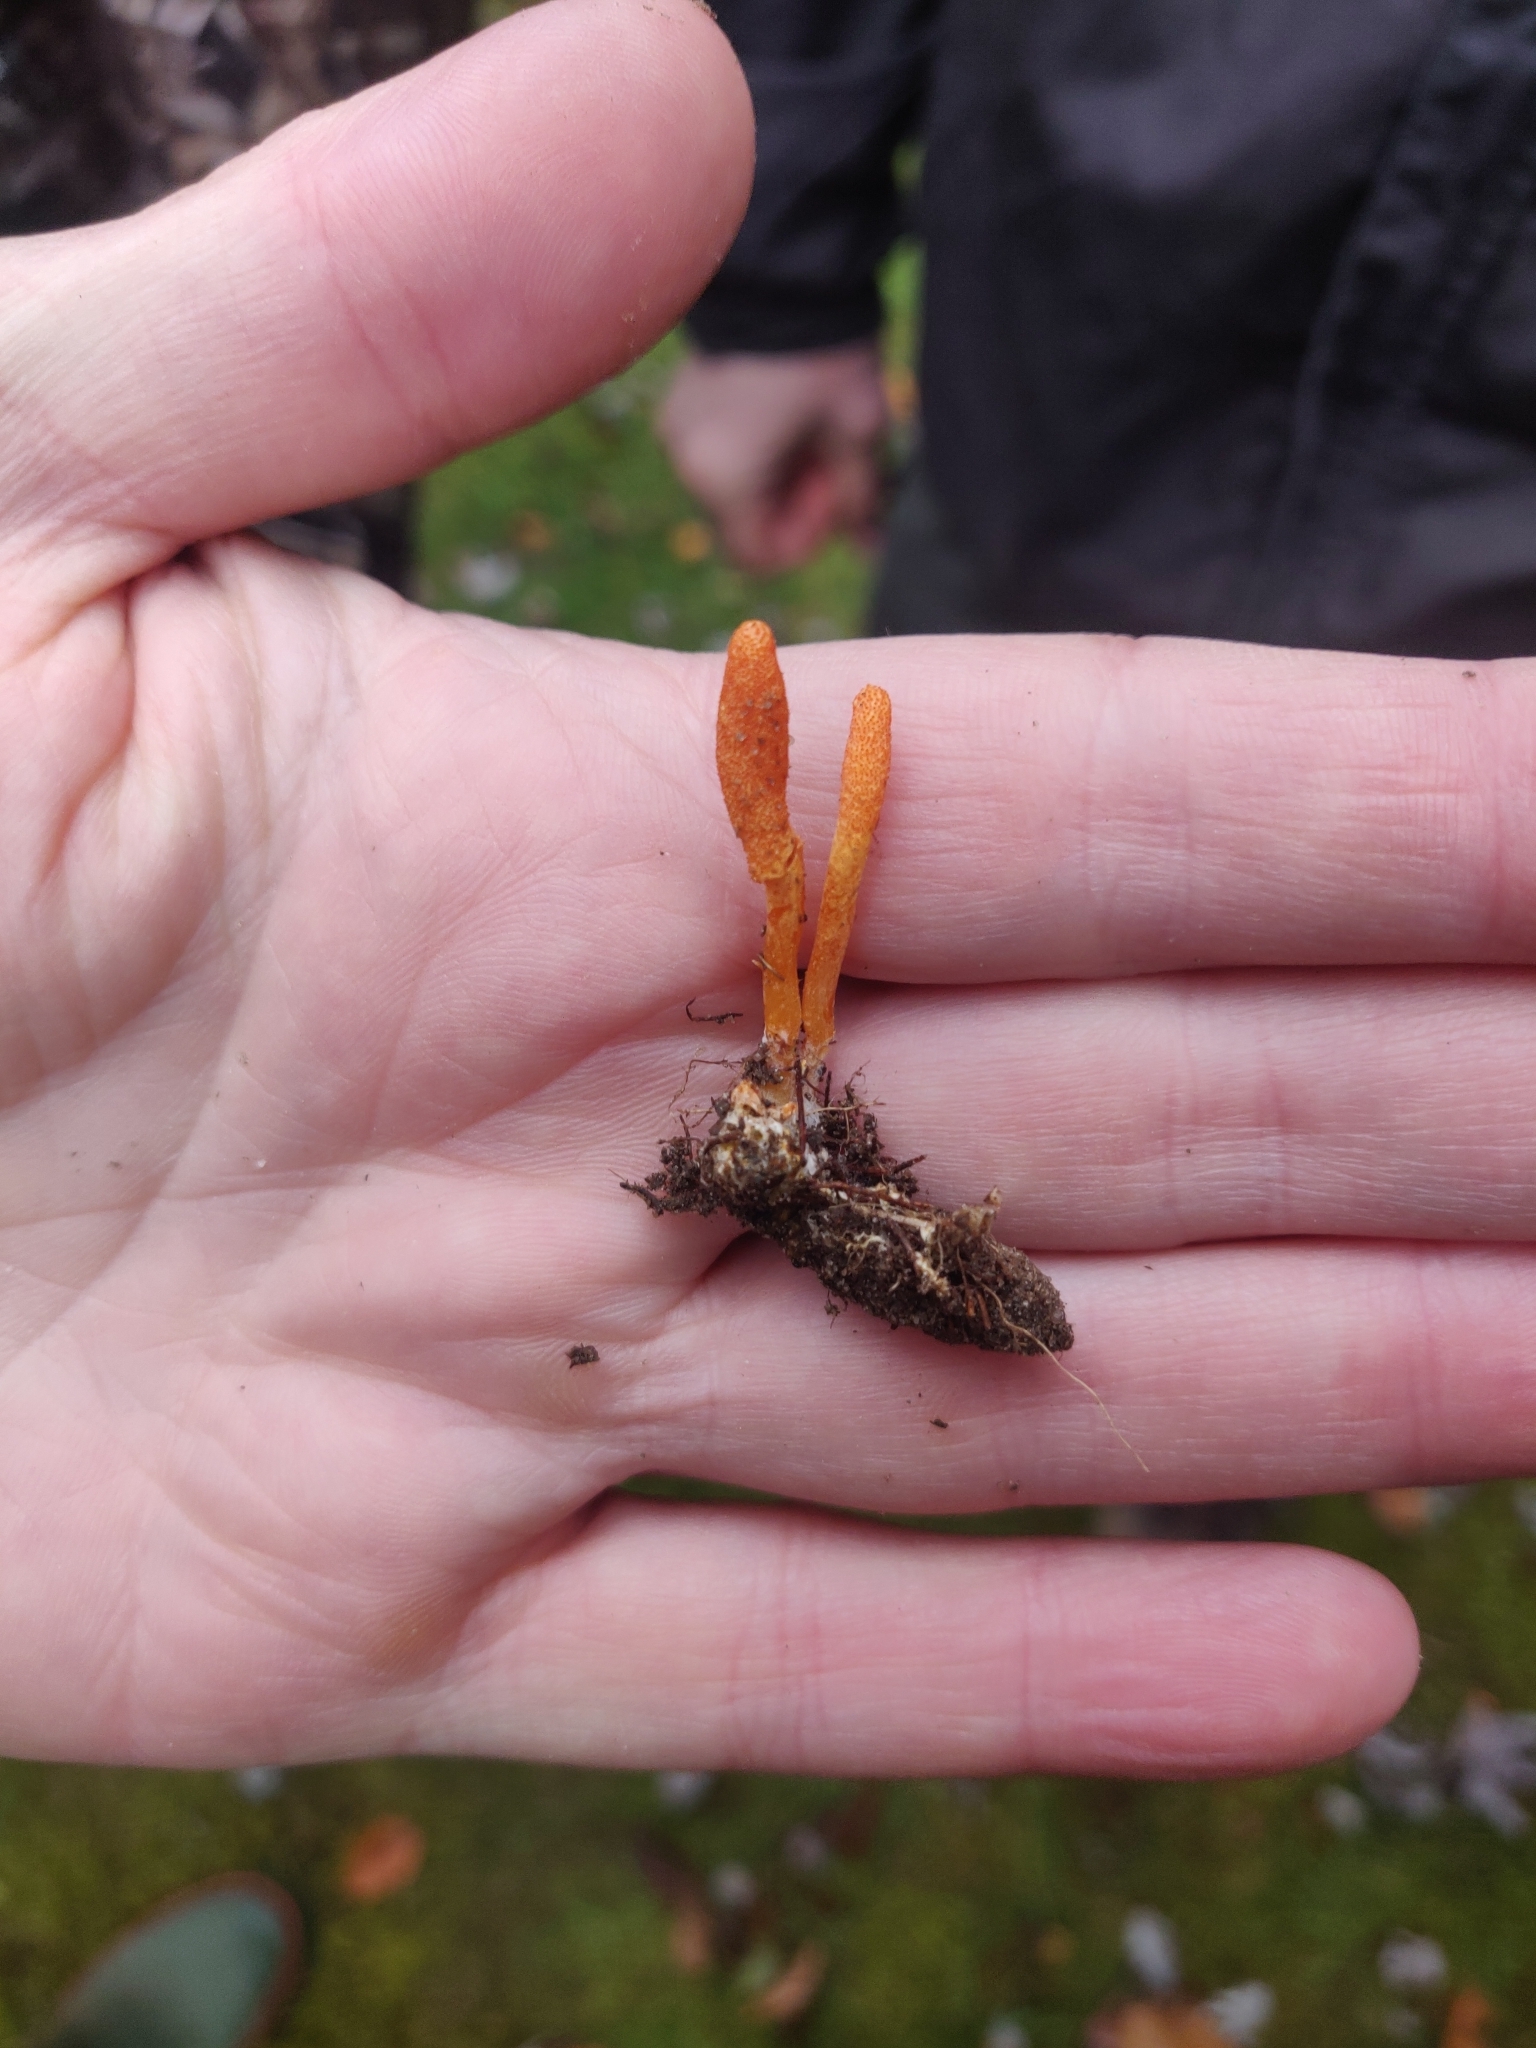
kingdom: Fungi
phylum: Ascomycota
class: Sordariomycetes
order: Hypocreales
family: Cordycipitaceae
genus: Cordyceps
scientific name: Cordyceps militaris
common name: Scarlet caterpillar fungus
